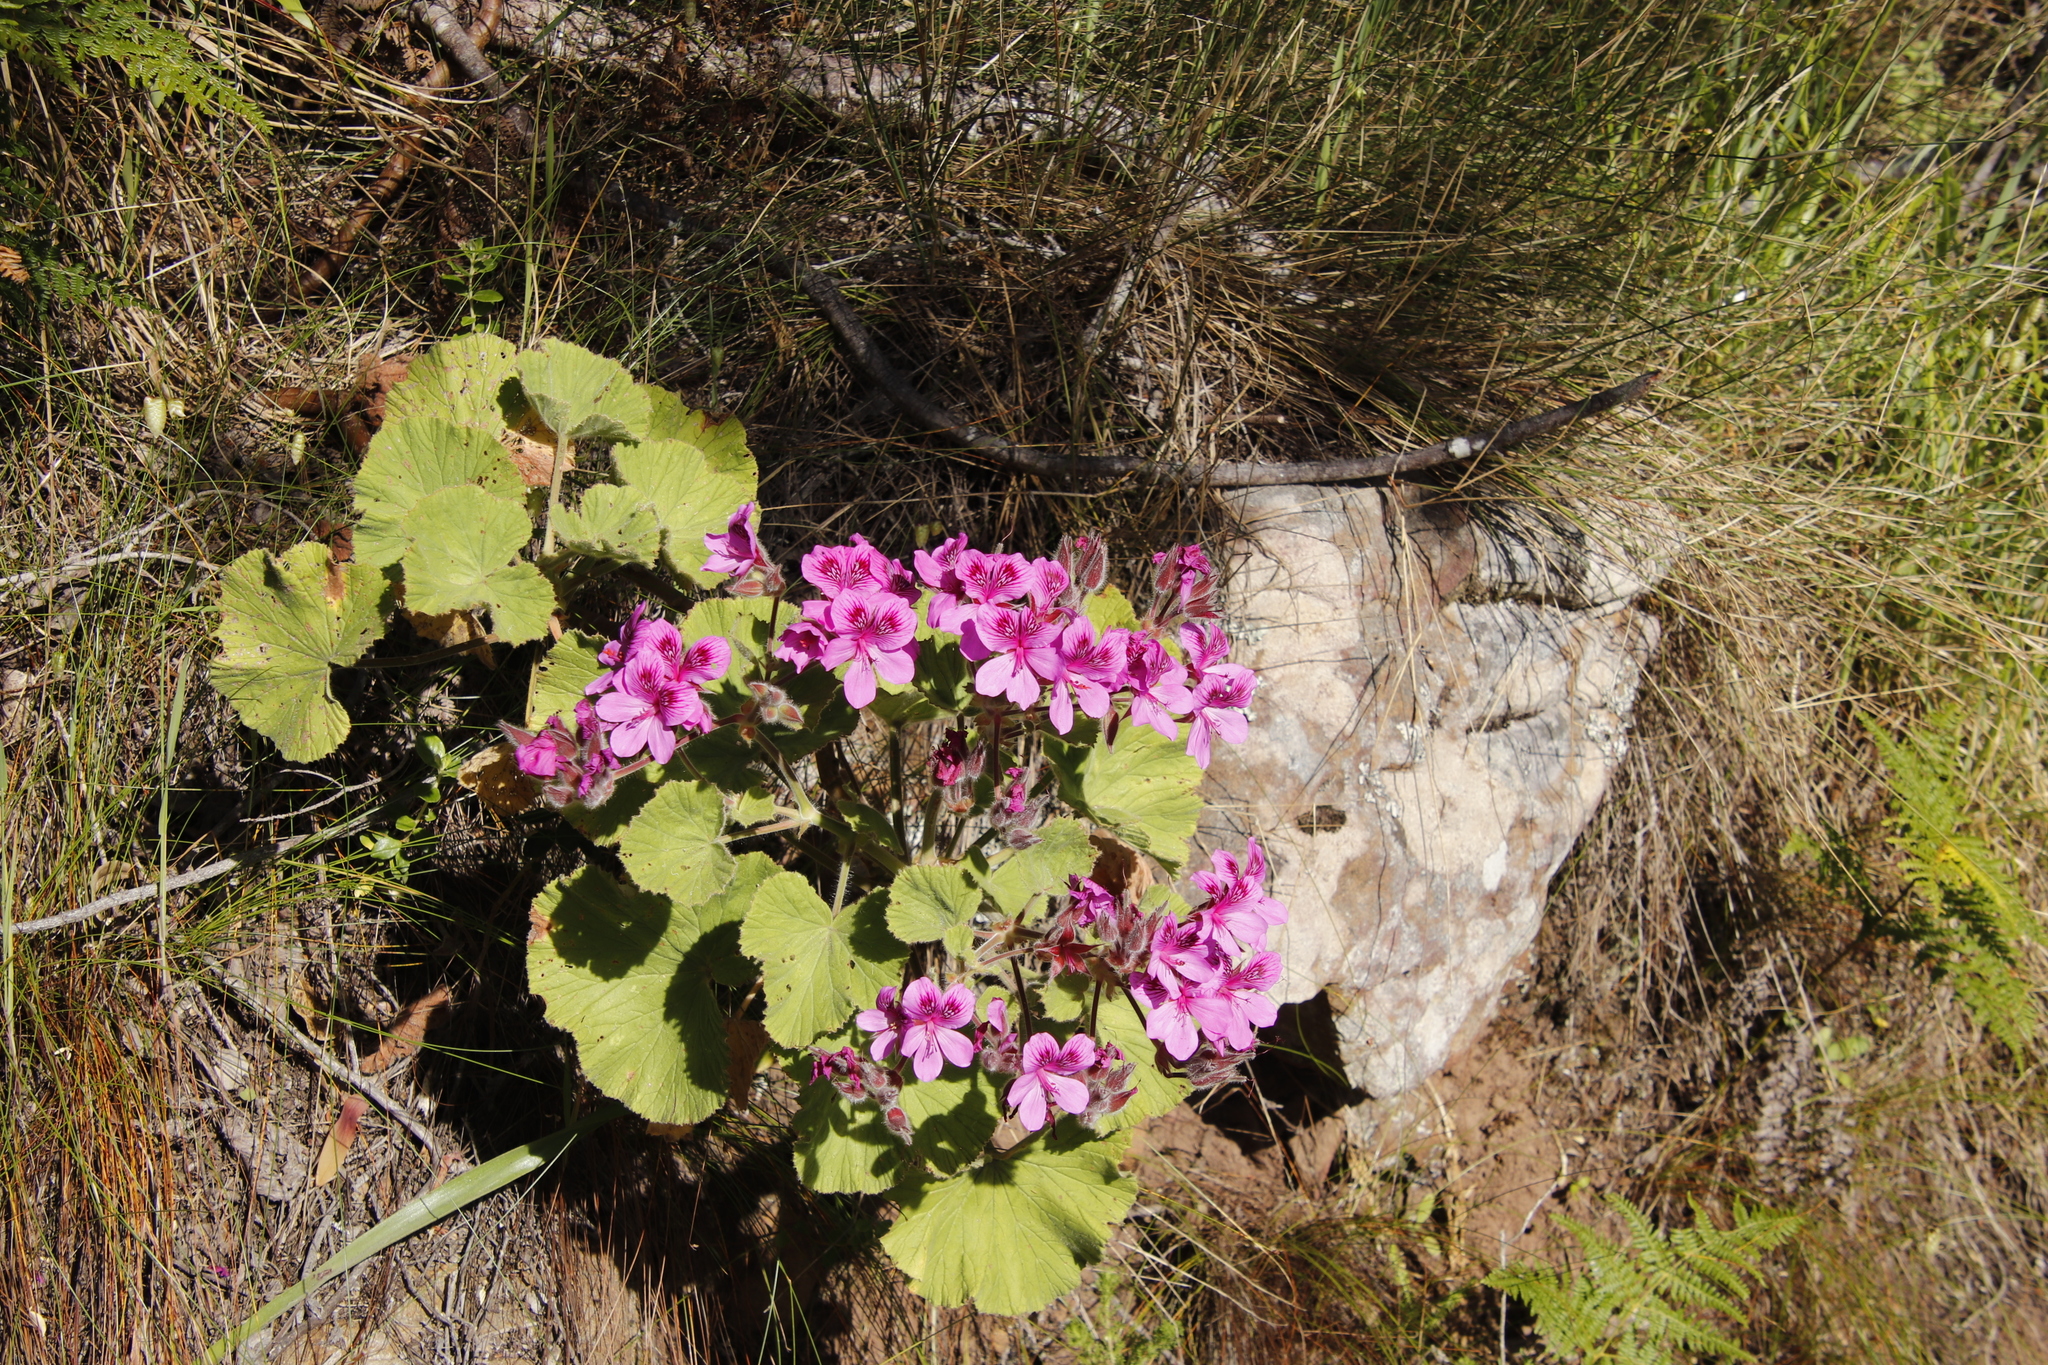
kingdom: Plantae
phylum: Tracheophyta
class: Magnoliopsida
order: Geraniales
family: Geraniaceae
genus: Pelargonium
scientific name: Pelargonium cucullatum
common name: Tree pelargonium
